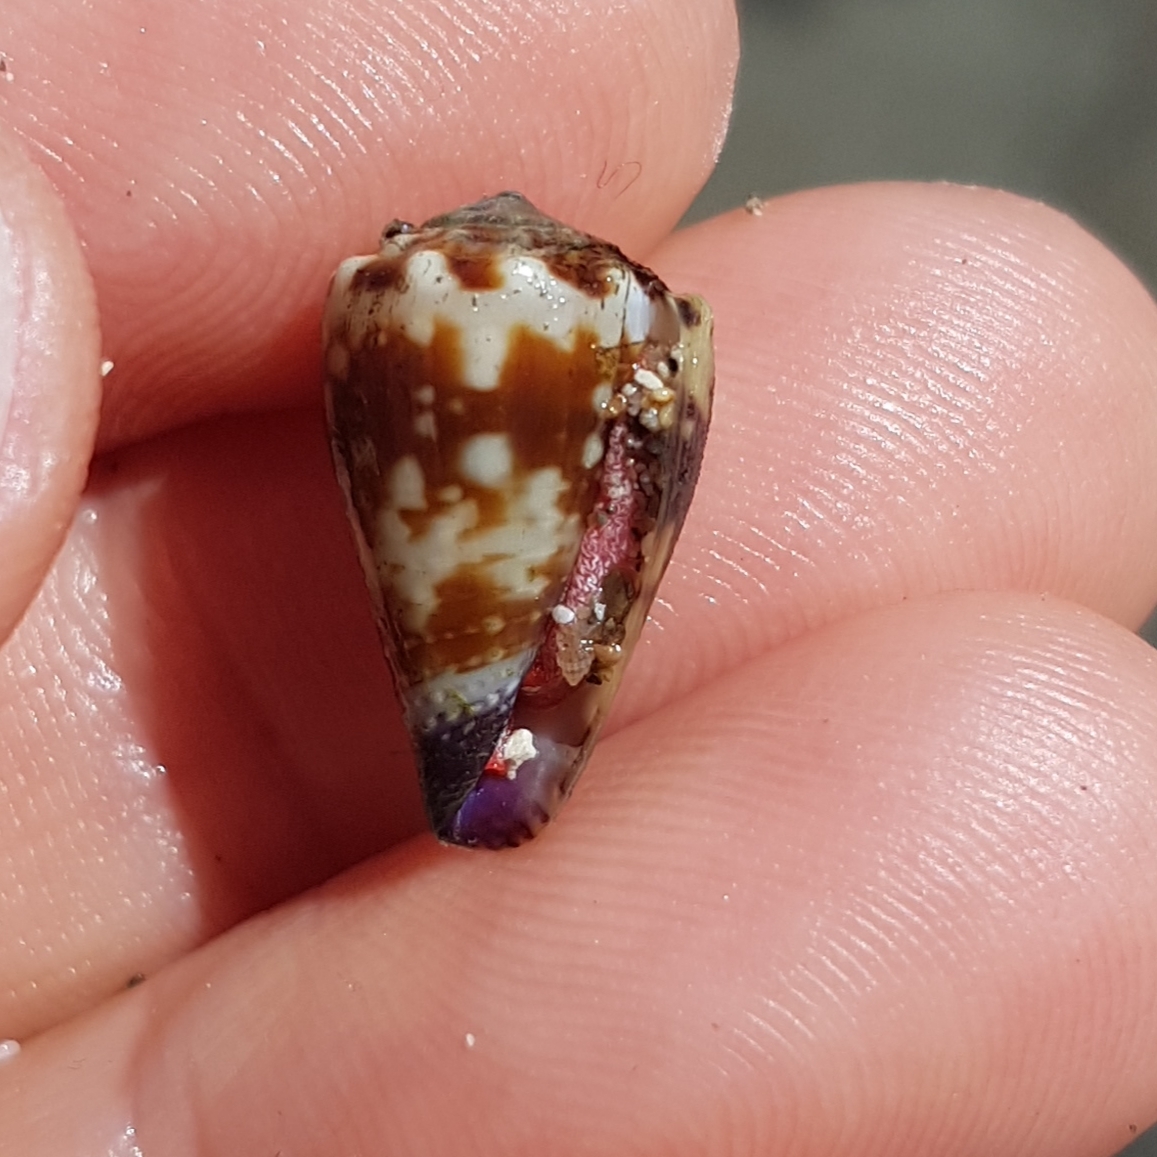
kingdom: Animalia
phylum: Mollusca
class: Gastropoda
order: Neogastropoda
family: Conidae
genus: Conus
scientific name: Conus nux
